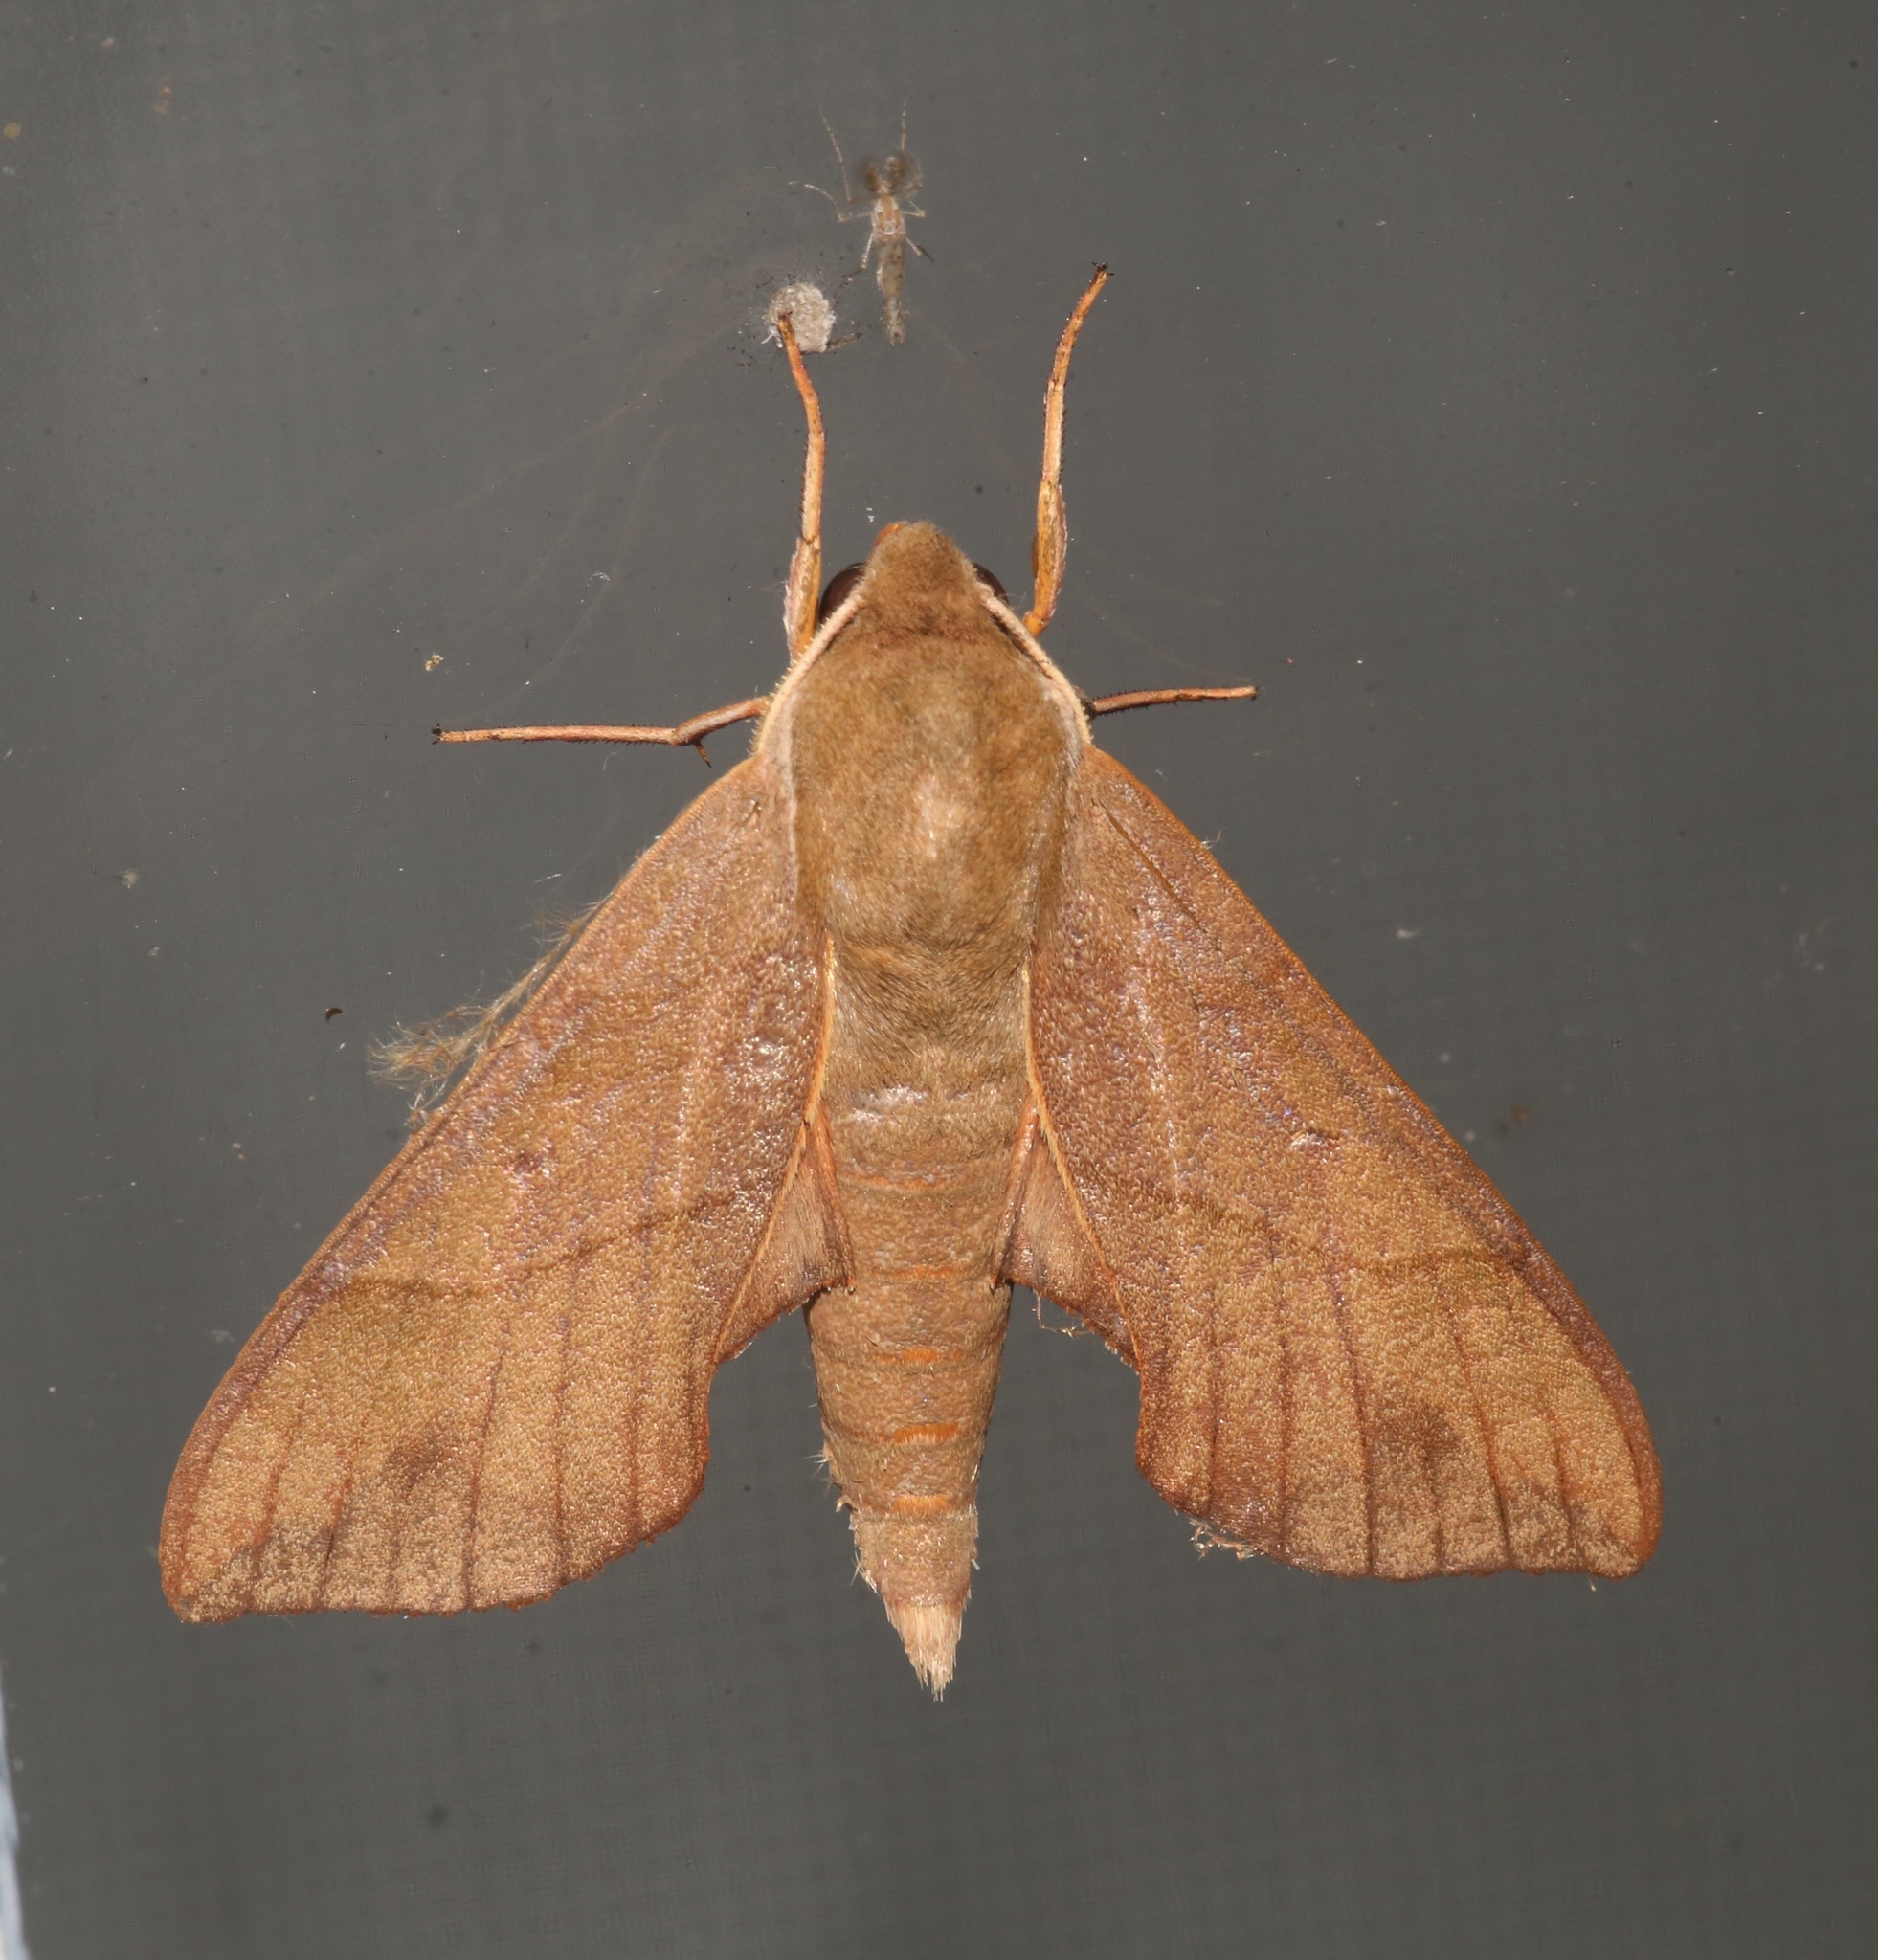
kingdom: Animalia
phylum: Arthropoda
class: Insecta
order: Lepidoptera
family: Sphingidae
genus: Darapsa
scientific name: Darapsa myron
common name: Hog sphinx
